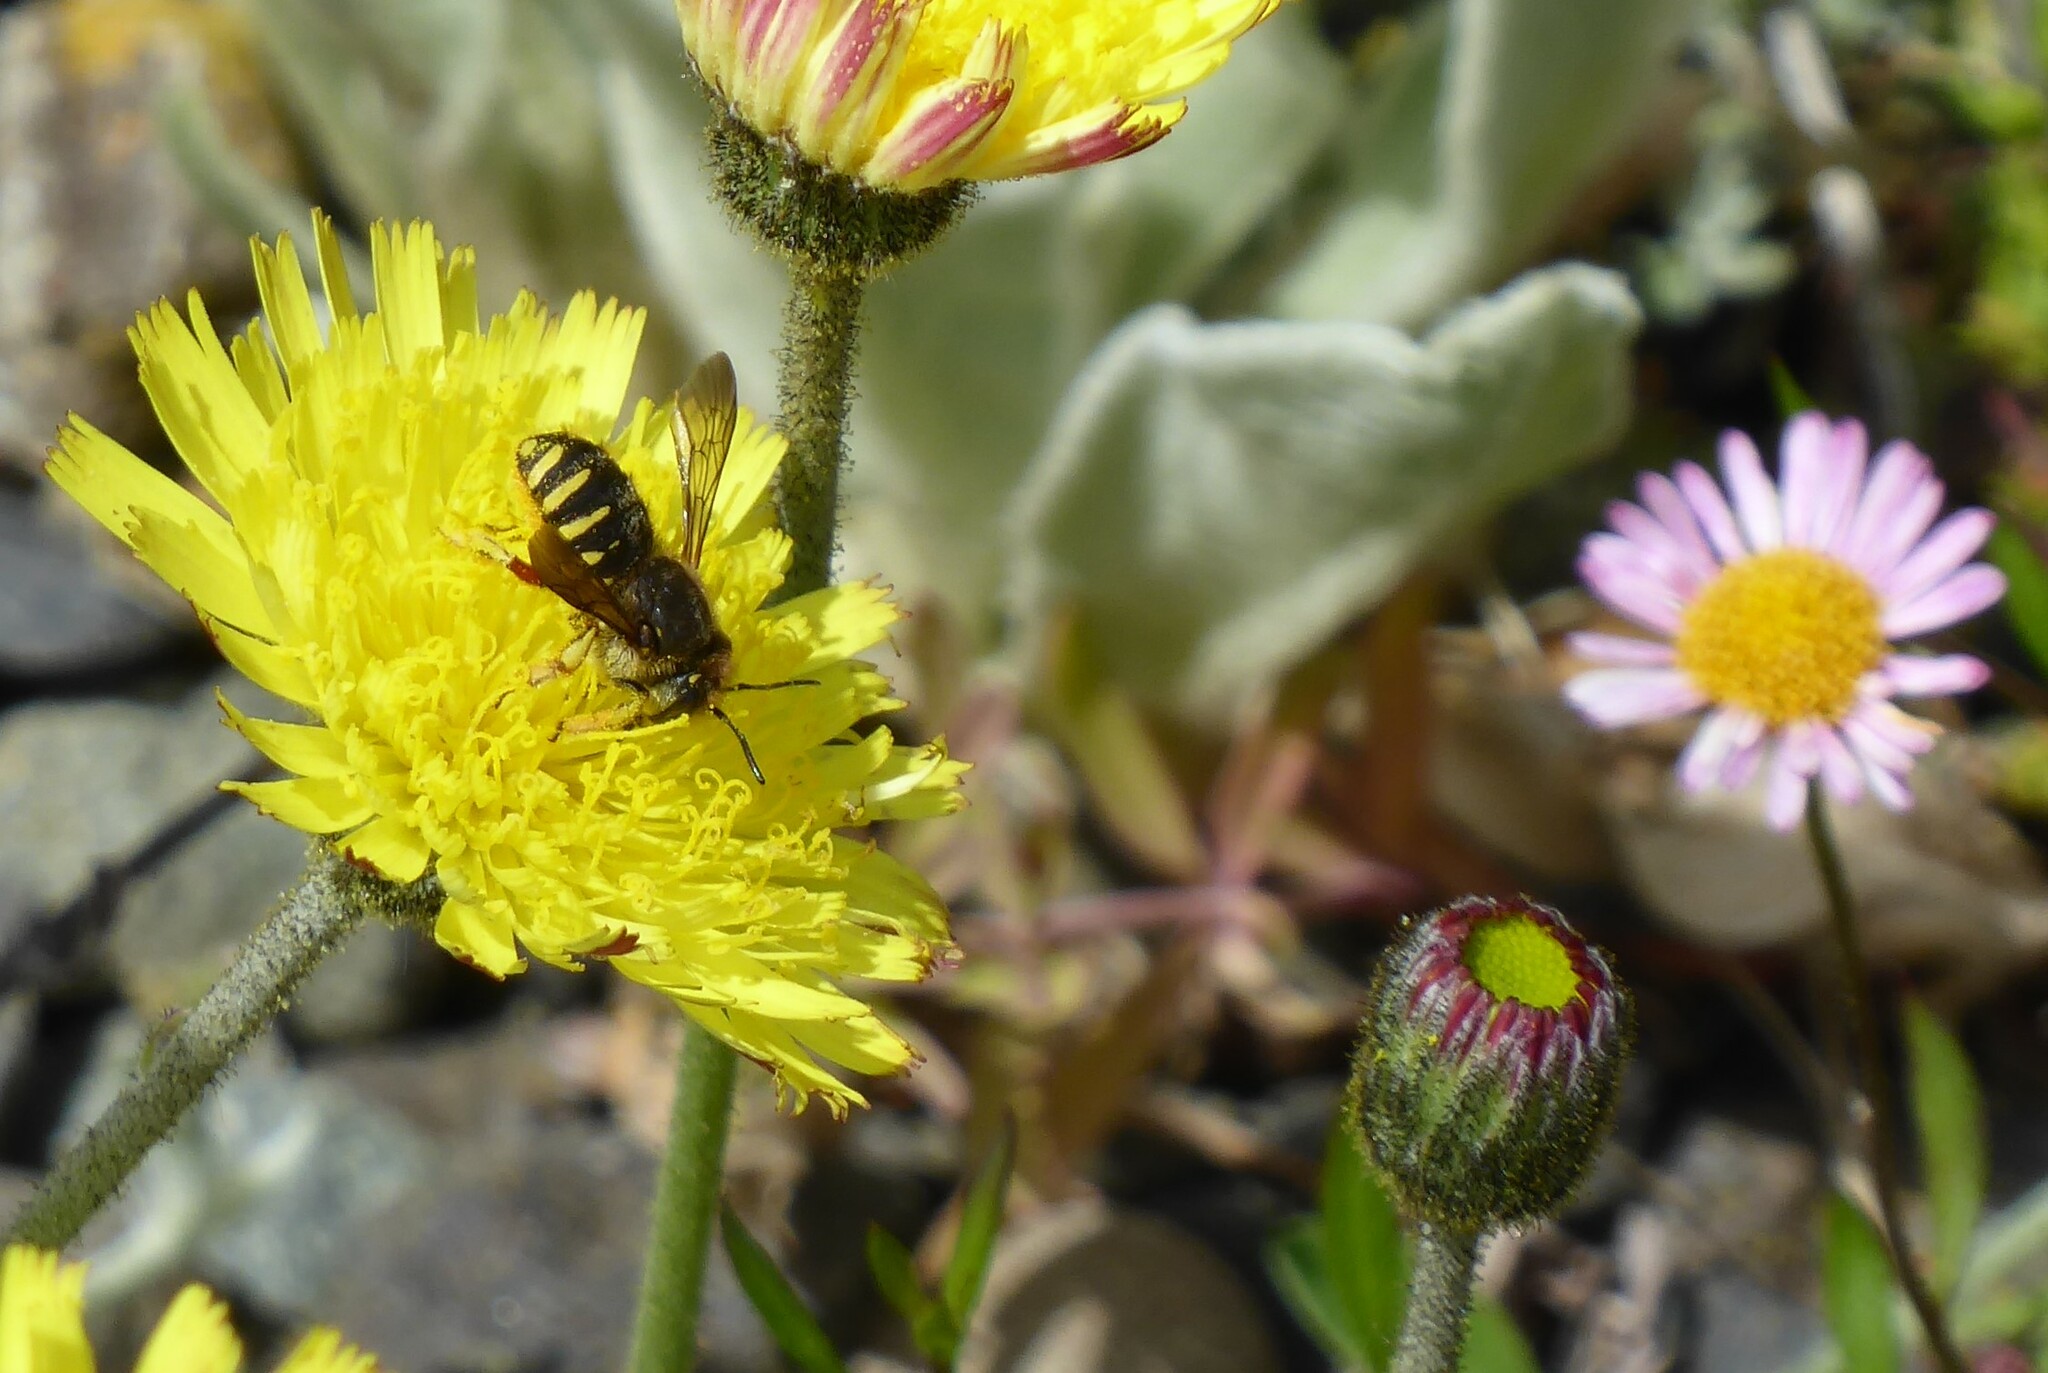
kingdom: Animalia
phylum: Arthropoda
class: Insecta
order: Hymenoptera
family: Megachilidae
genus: Anthidium
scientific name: Anthidium manicatum
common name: Wool carder bee
